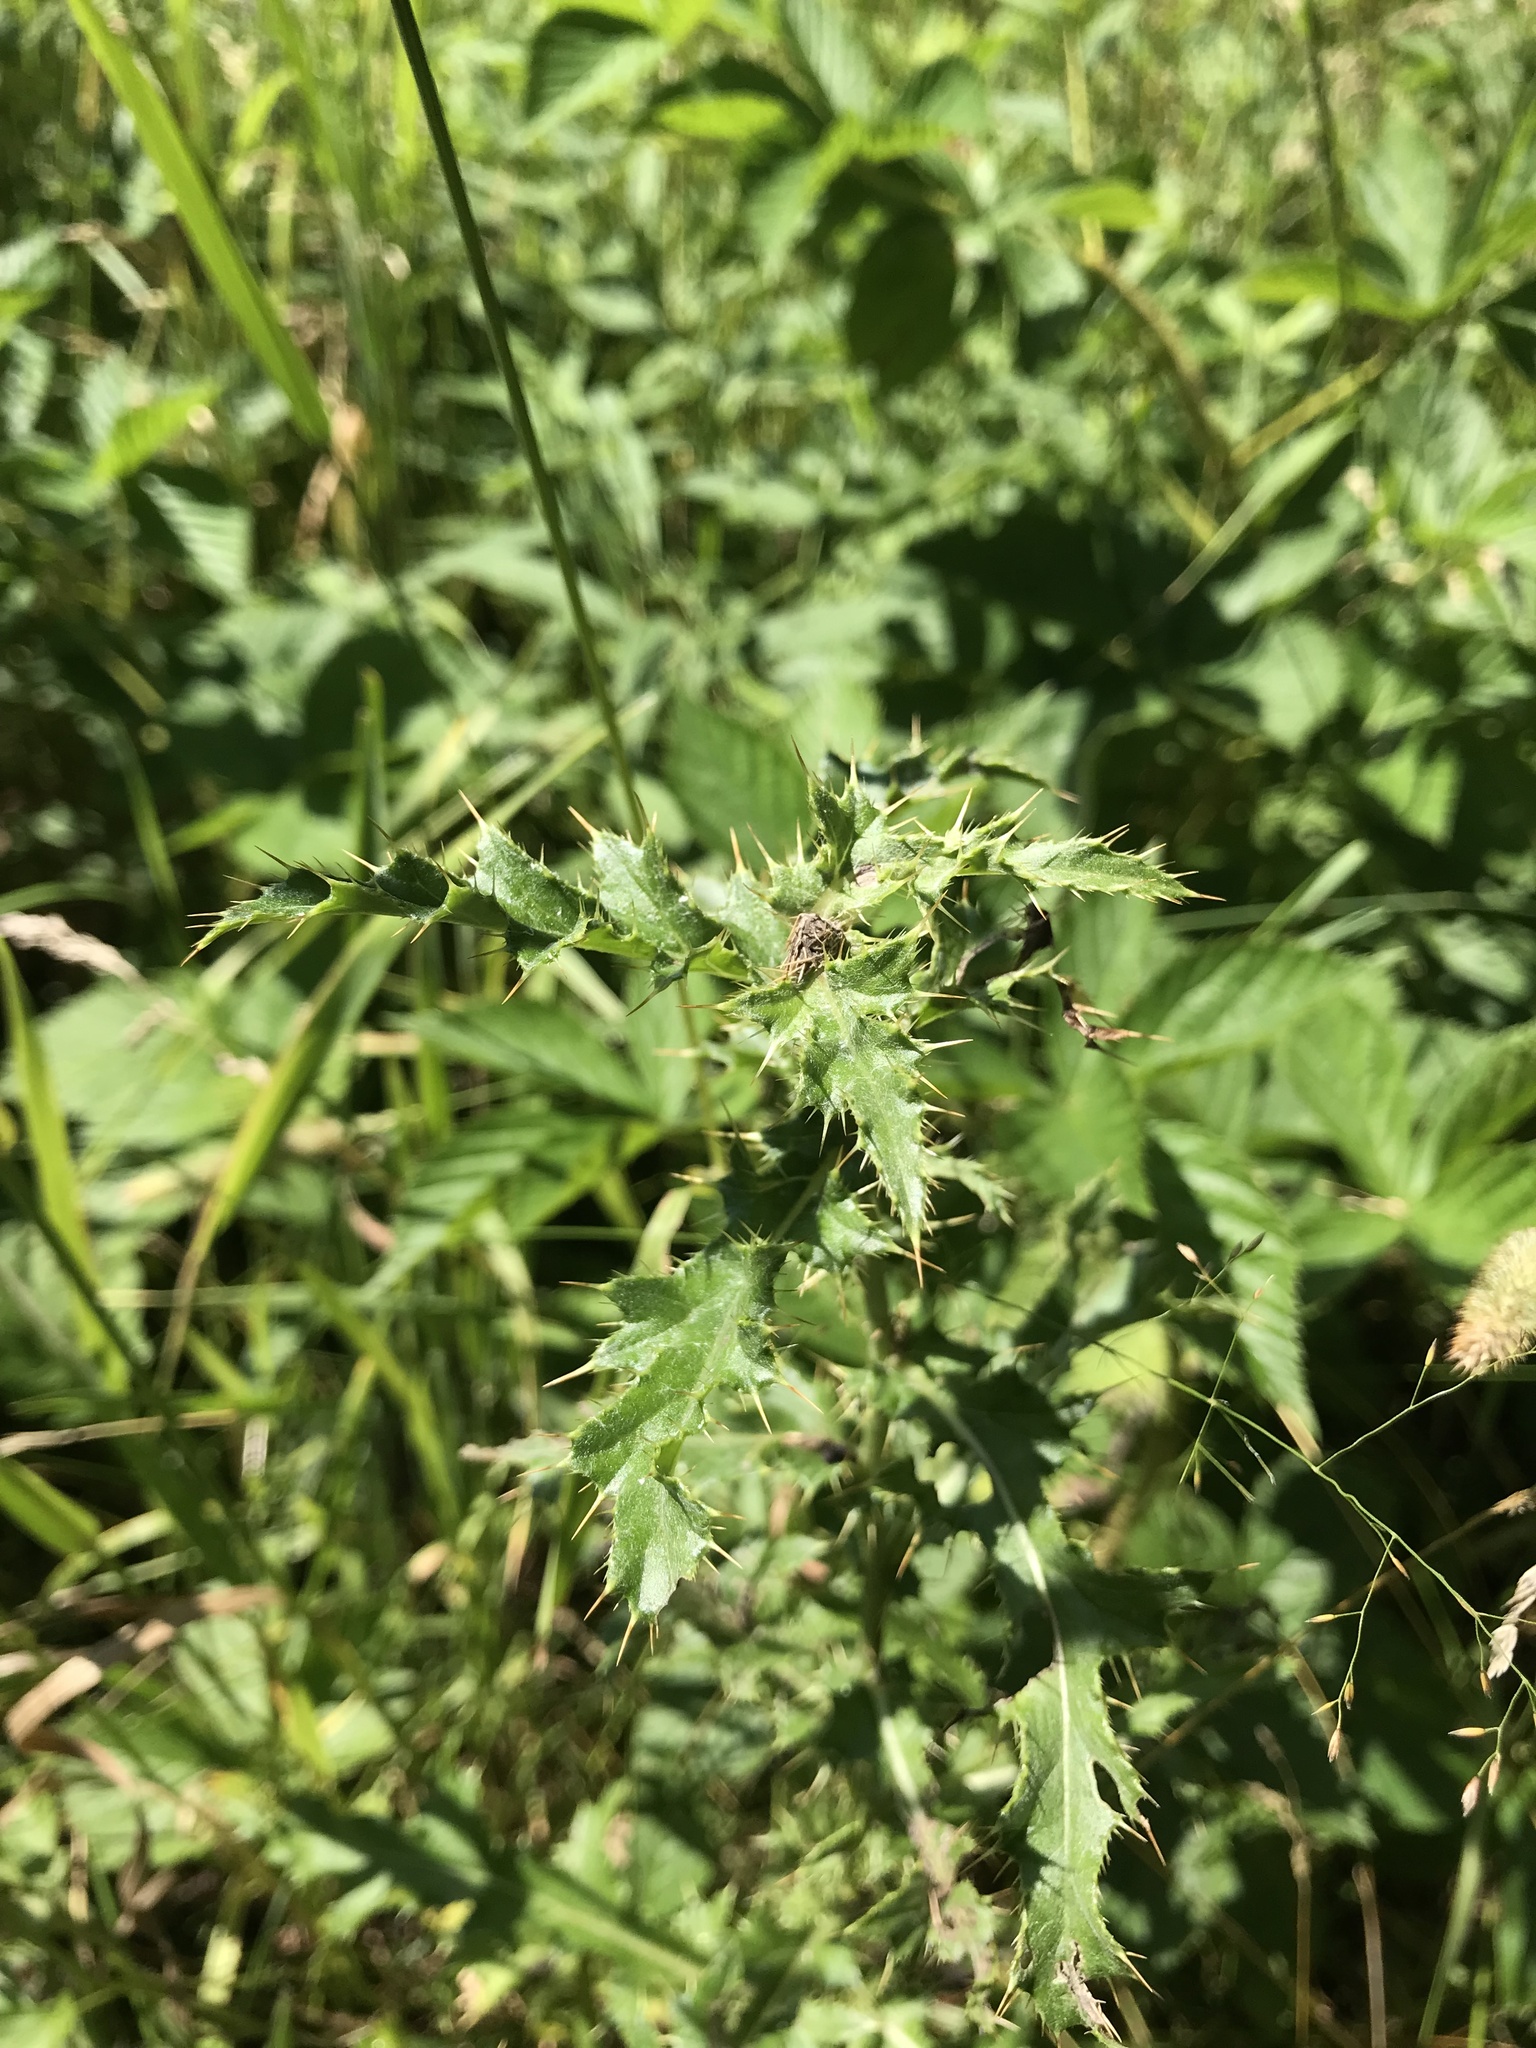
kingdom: Plantae
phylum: Tracheophyta
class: Magnoliopsida
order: Asterales
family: Asteraceae
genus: Cirsium
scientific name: Cirsium arvense
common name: Creeping thistle
